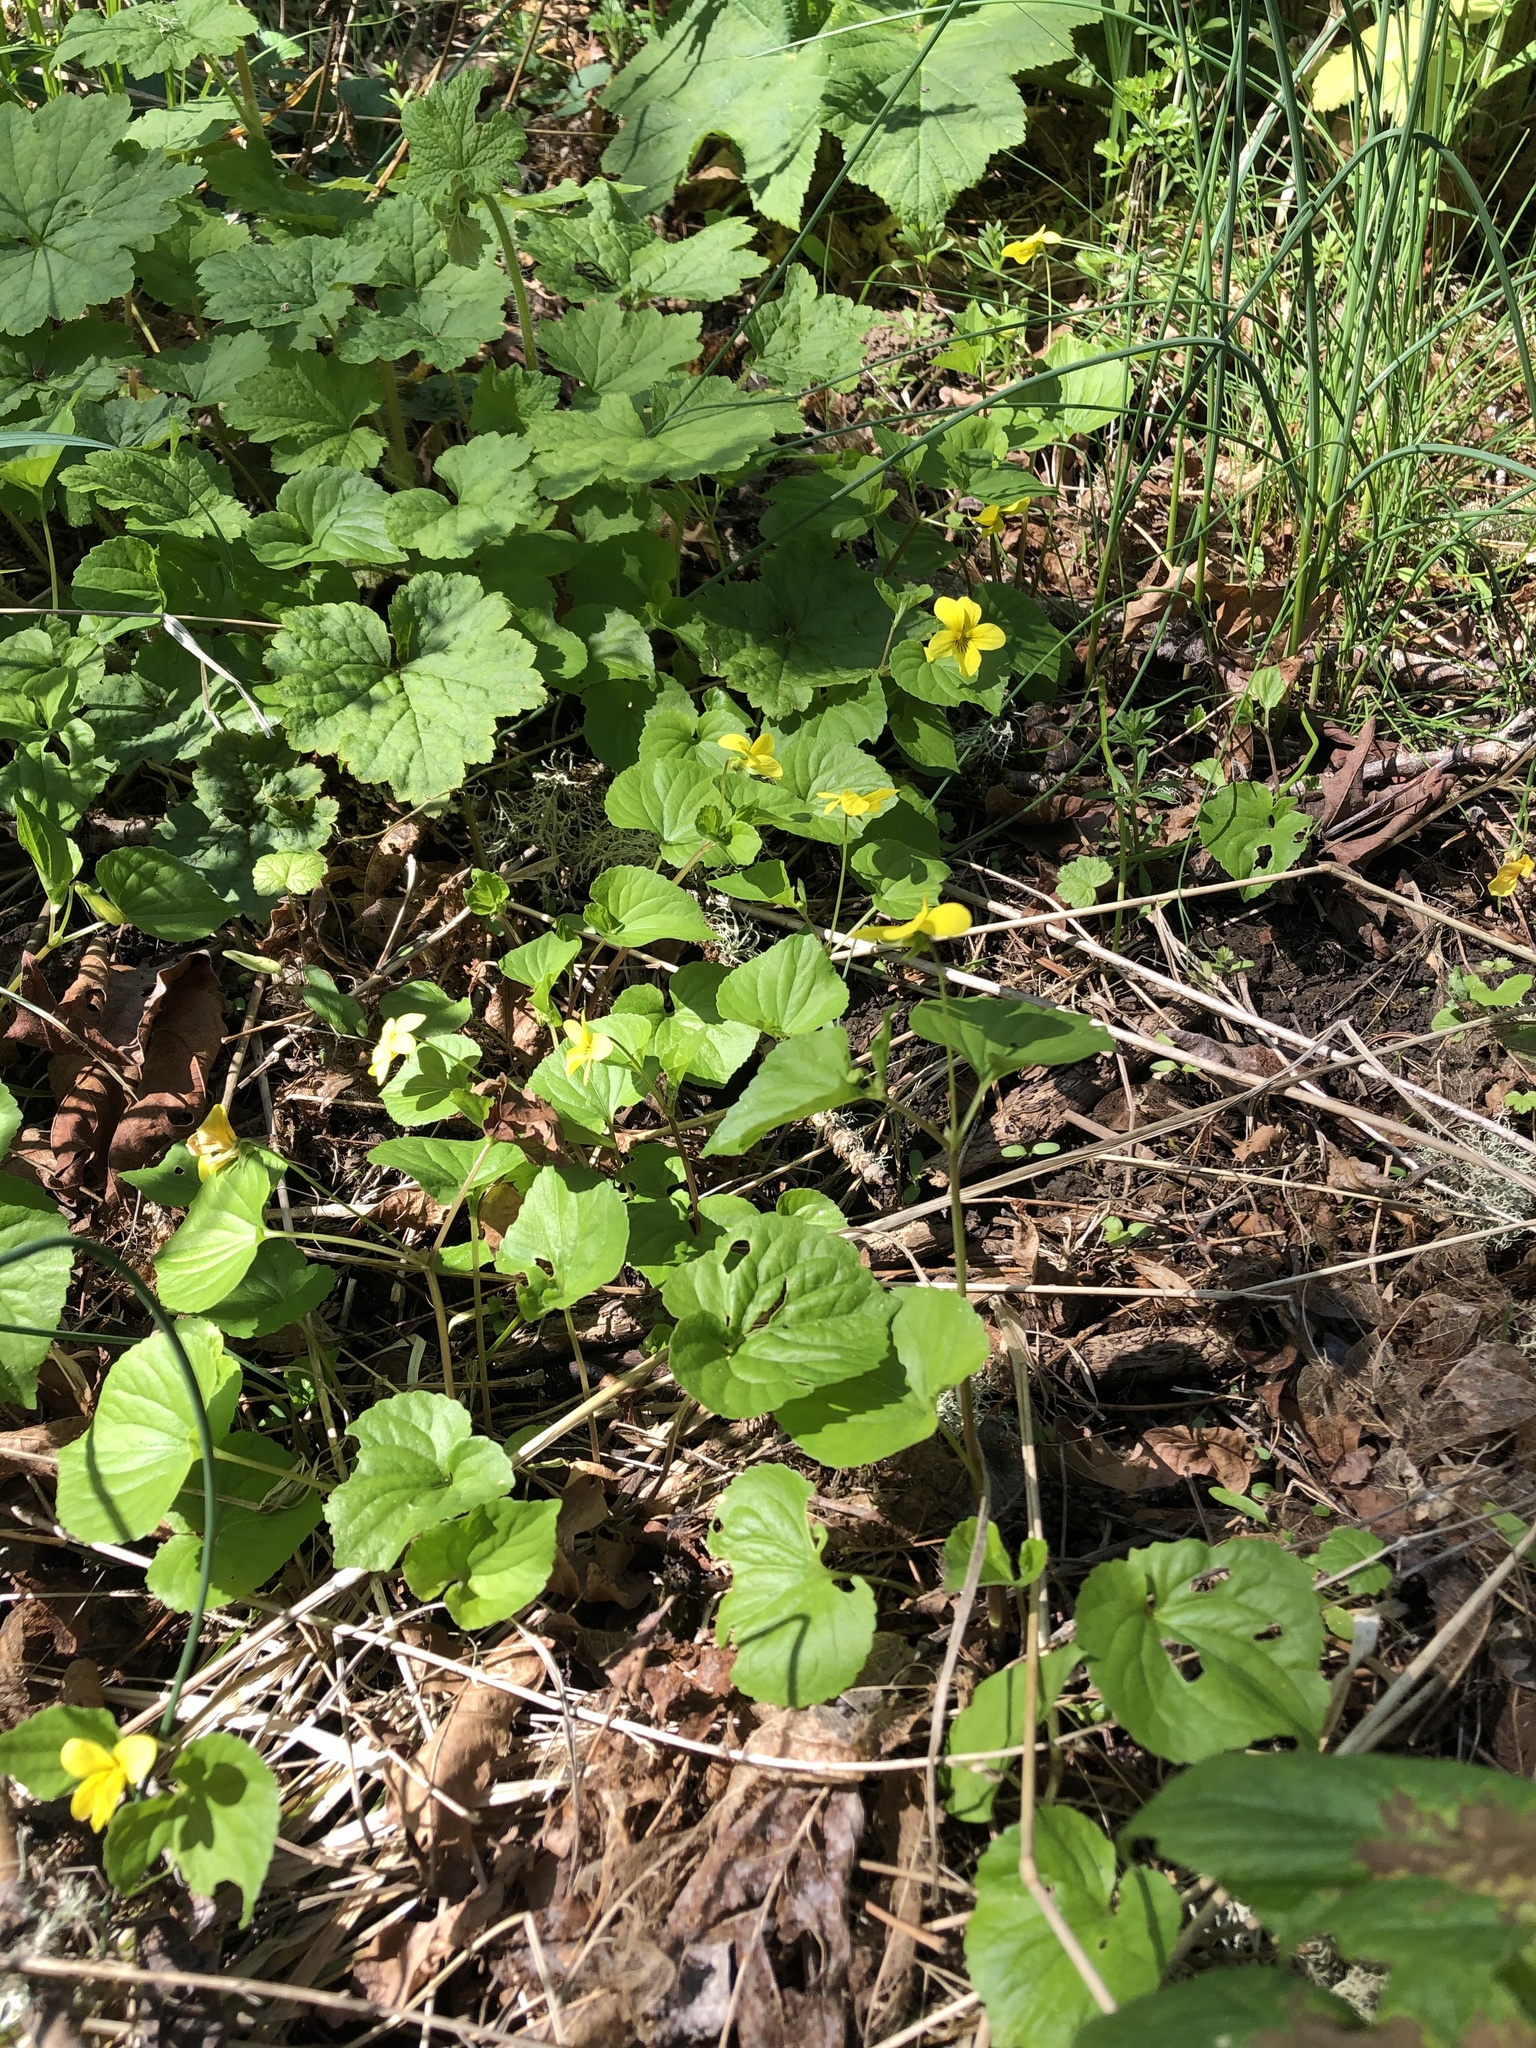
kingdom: Plantae
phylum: Tracheophyta
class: Magnoliopsida
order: Malpighiales
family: Violaceae
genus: Viola
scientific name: Viola glabella
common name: Stream violet
